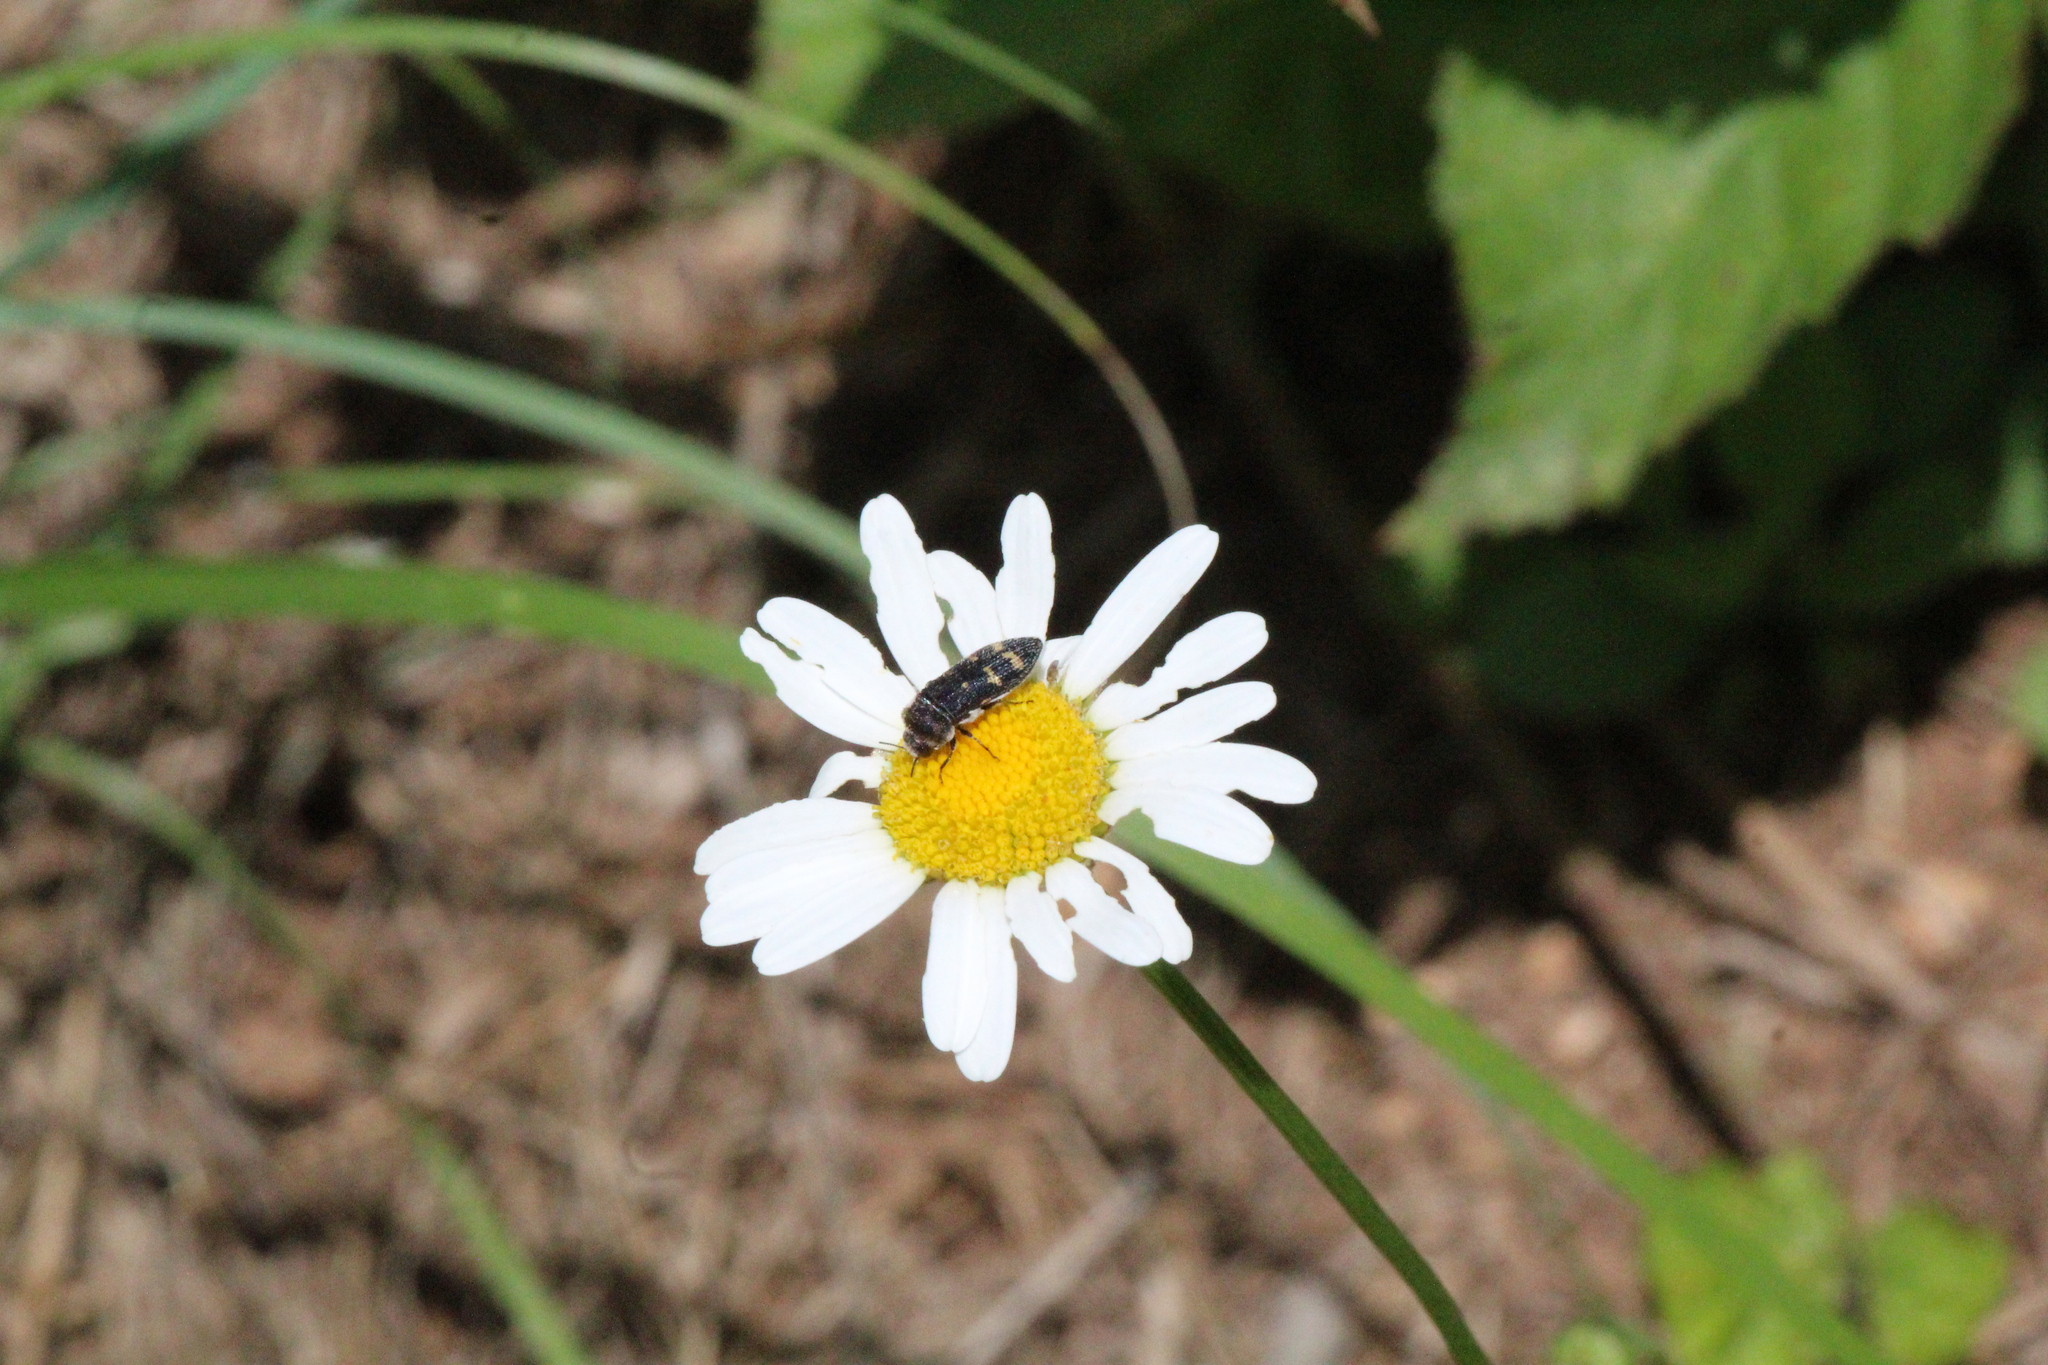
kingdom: Animalia
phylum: Arthropoda
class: Insecta
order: Coleoptera
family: Buprestidae
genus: Acmaeoderella
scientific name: Acmaeoderella flavofasciata
